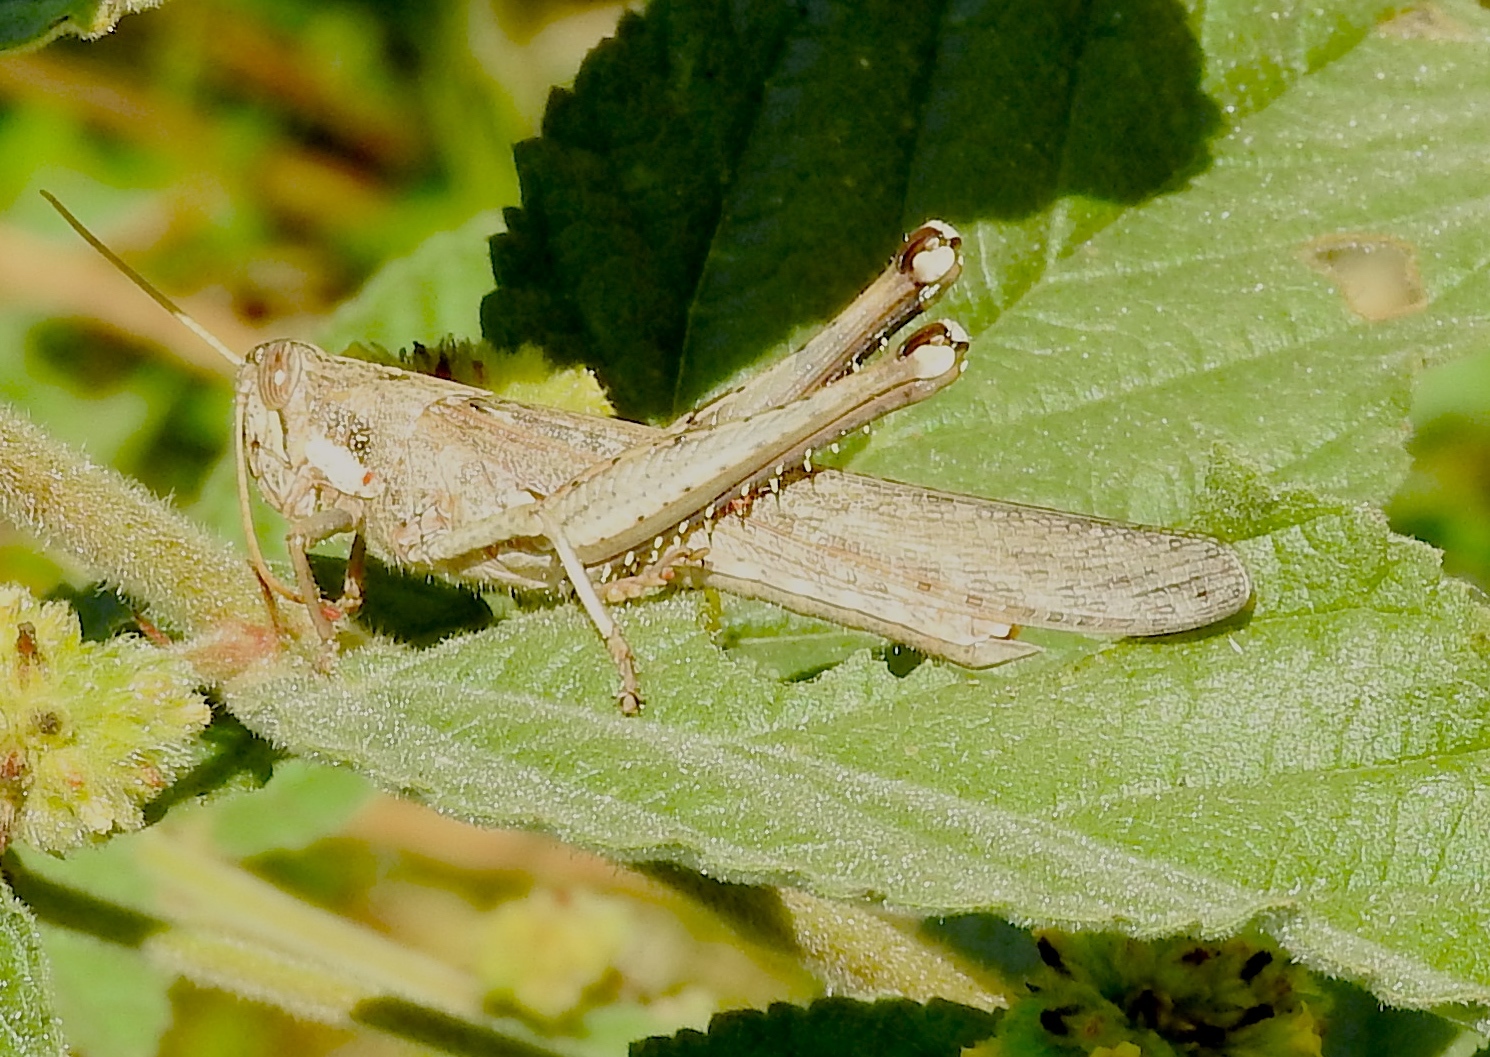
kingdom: Animalia
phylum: Arthropoda
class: Insecta
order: Orthoptera
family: Acrididae
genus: Schistocerca
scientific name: Schistocerca nitens
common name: Vagrant grasshopper
